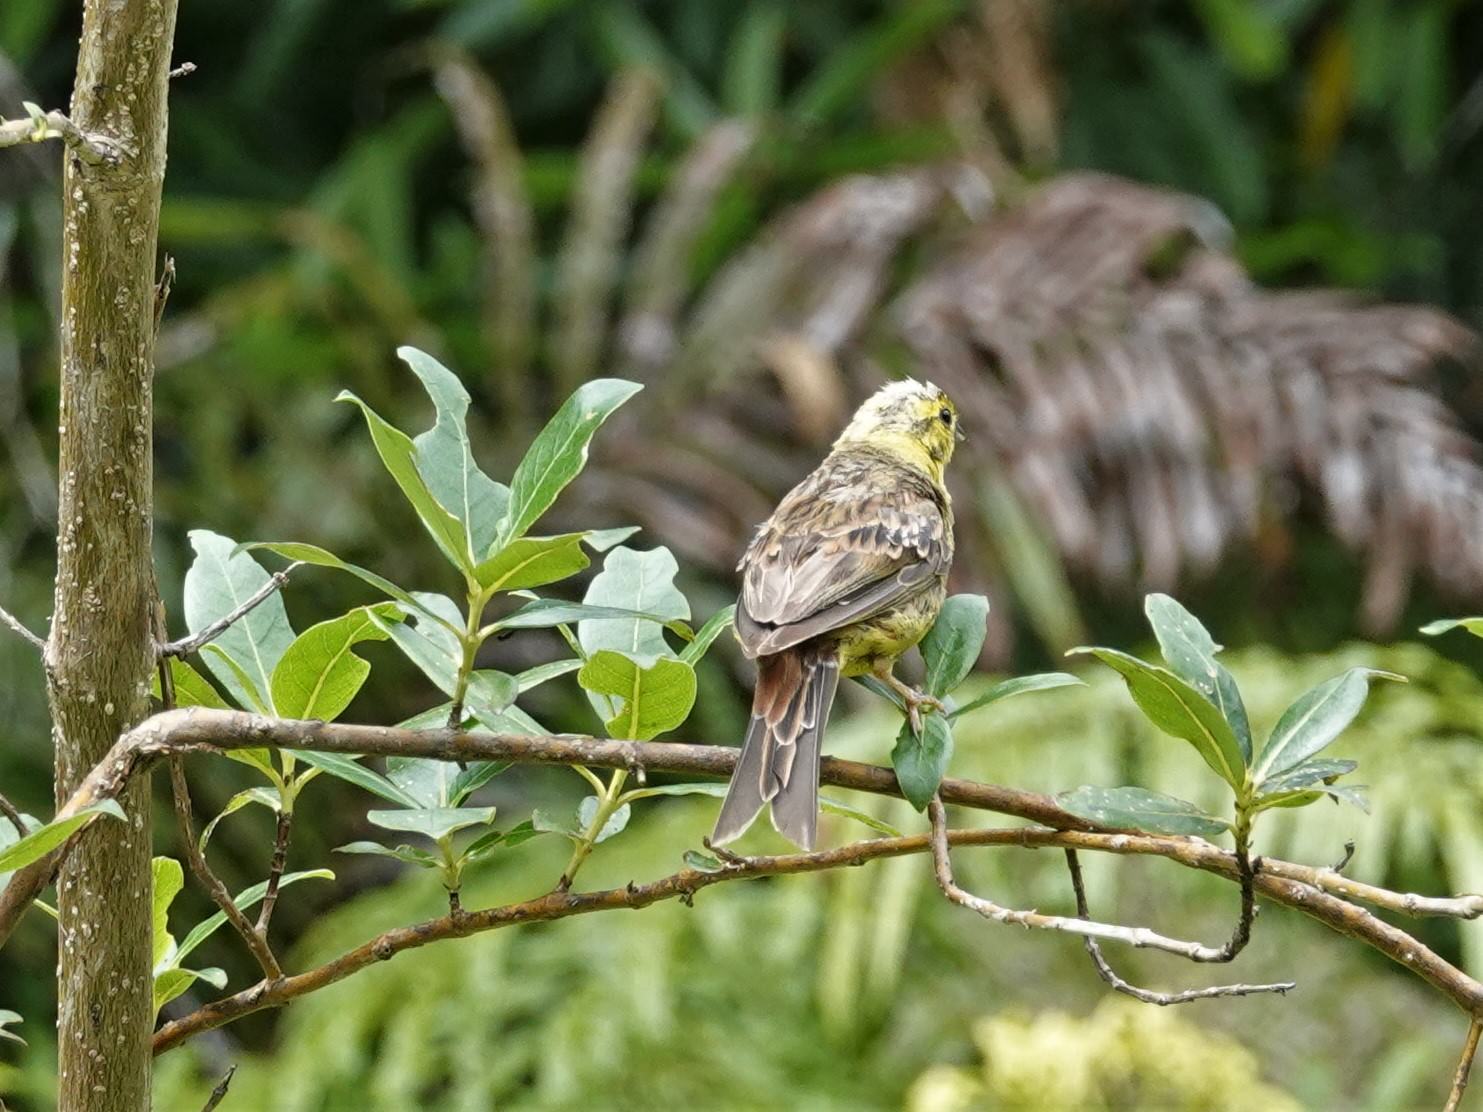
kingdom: Animalia
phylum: Chordata
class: Aves
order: Passeriformes
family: Emberizidae
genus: Emberiza
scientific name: Emberiza citrinella
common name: Yellowhammer
